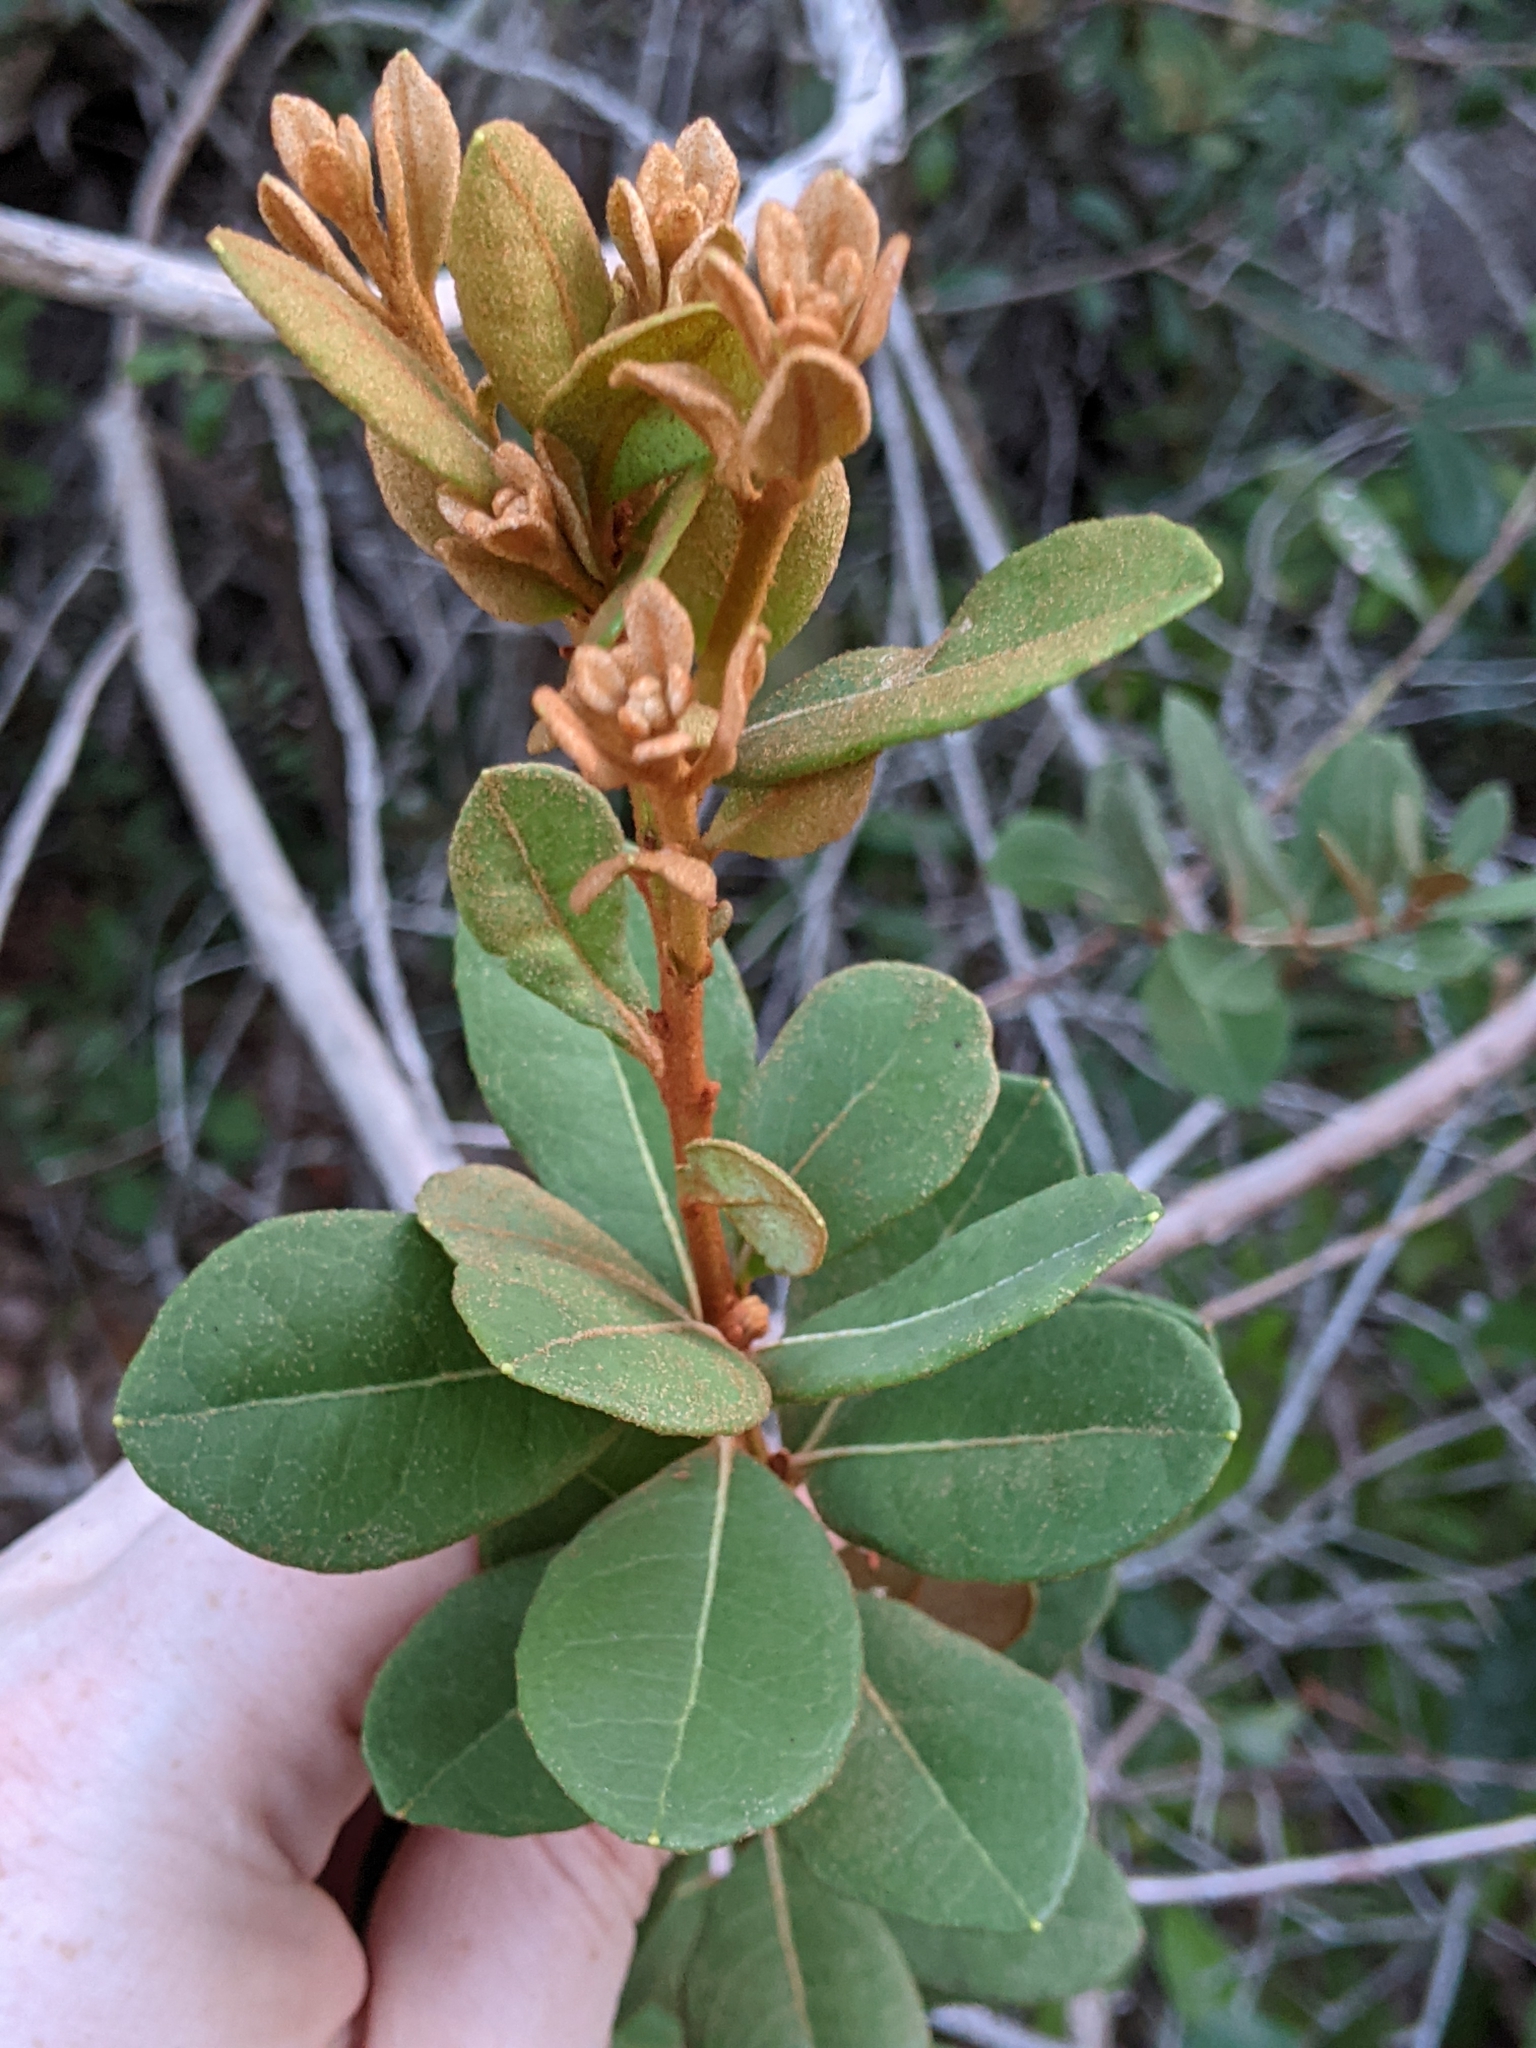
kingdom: Plantae
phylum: Tracheophyta
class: Magnoliopsida
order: Ericales
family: Ericaceae
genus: Lyonia
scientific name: Lyonia fruticosa
